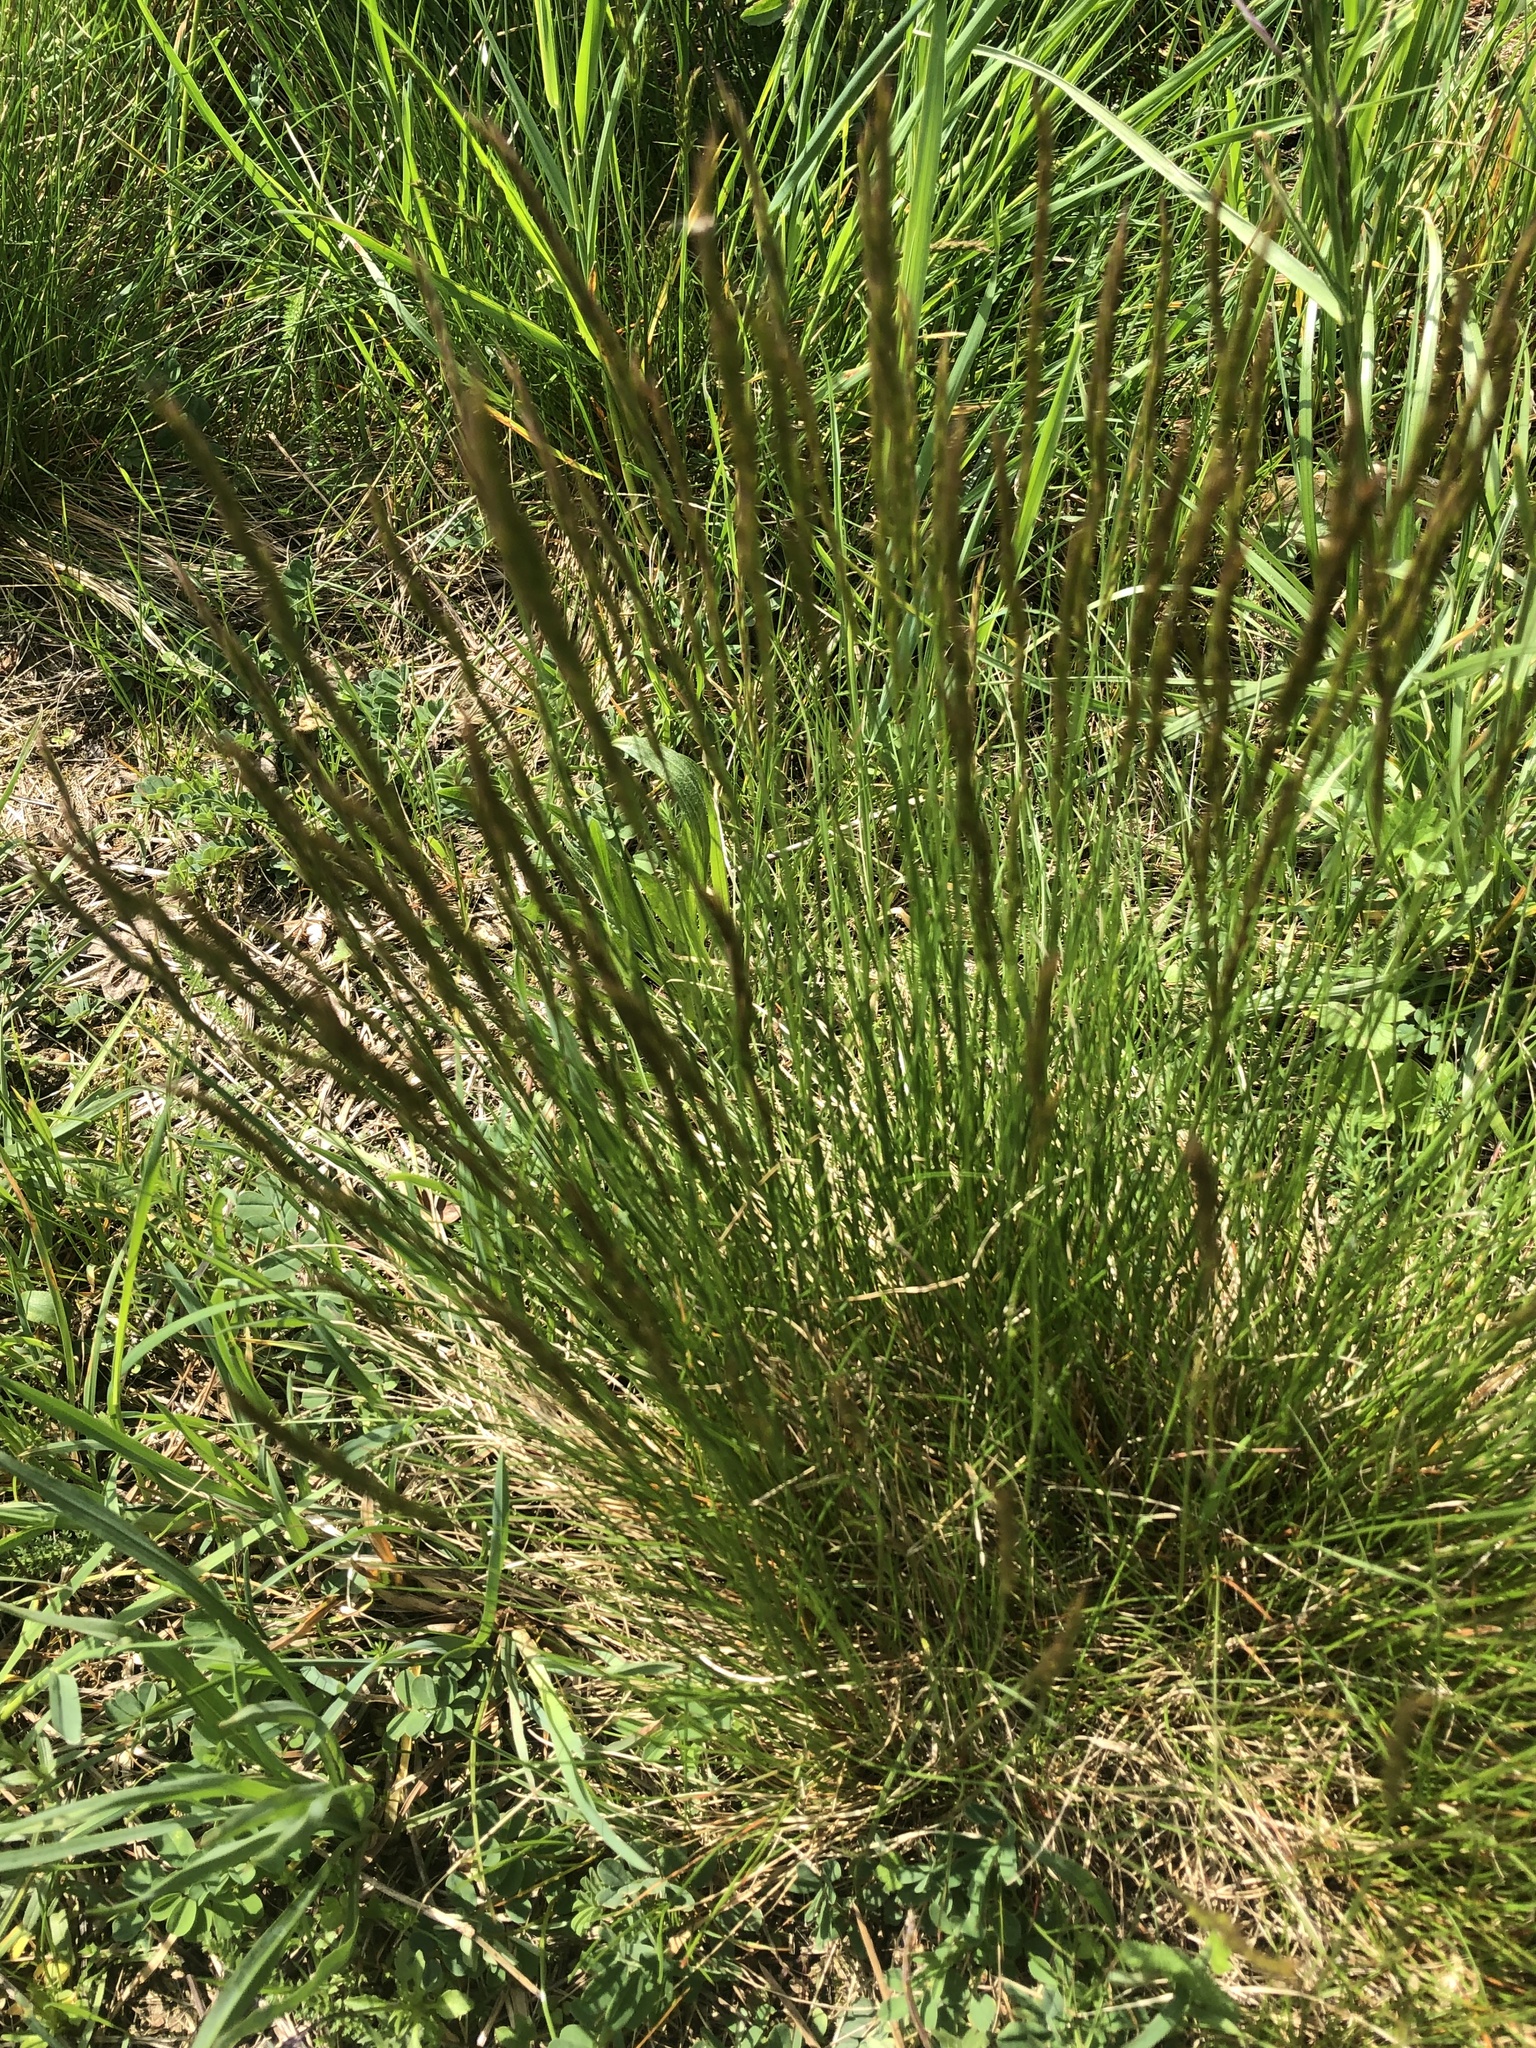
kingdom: Plantae
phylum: Tracheophyta
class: Liliopsida
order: Poales
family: Poaceae
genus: Festuca
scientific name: Festuca rupicola
